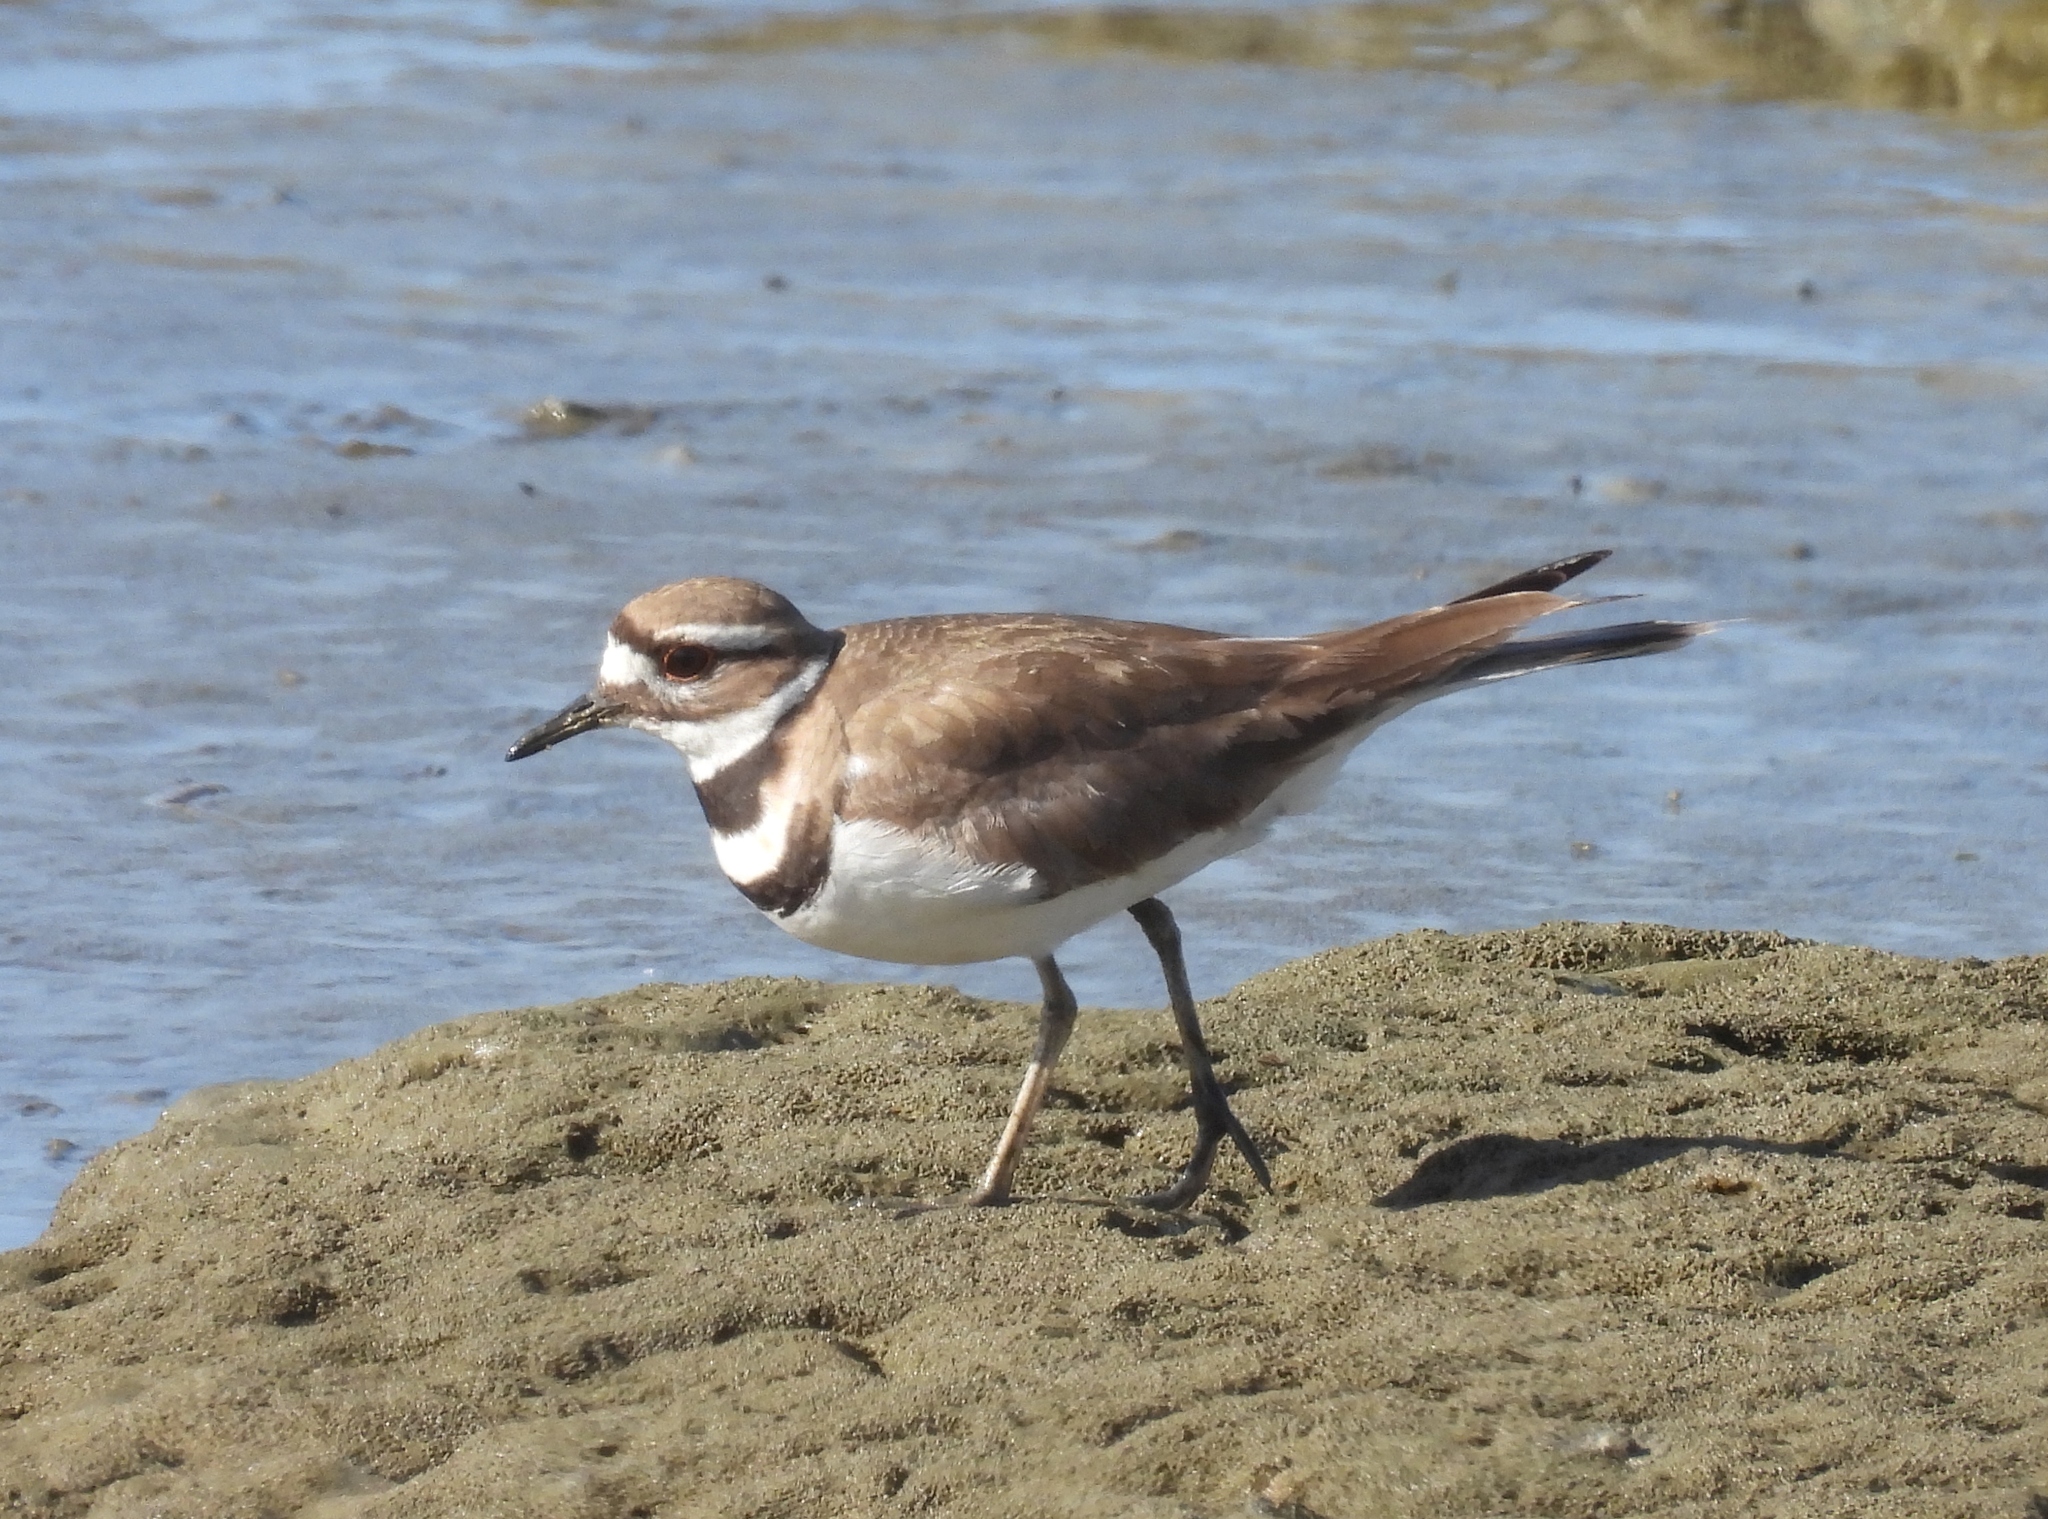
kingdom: Animalia
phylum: Chordata
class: Aves
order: Charadriiformes
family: Charadriidae
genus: Charadrius
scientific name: Charadrius vociferus
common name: Killdeer
